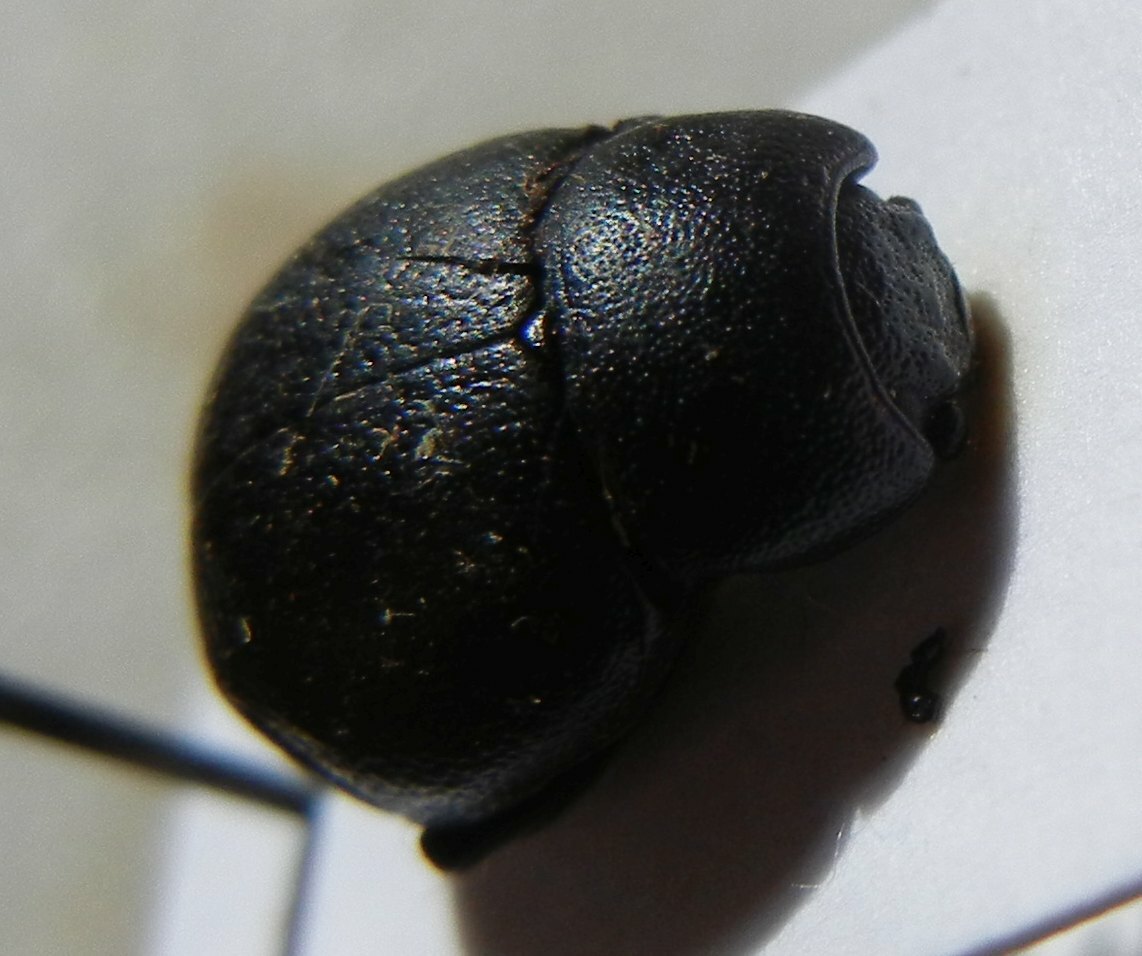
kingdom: Animalia
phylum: Arthropoda
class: Insecta
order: Coleoptera
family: Chrysomelidae
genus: Timarcha
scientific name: Timarcha goettingensis
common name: Small bloody-nosed beetle
